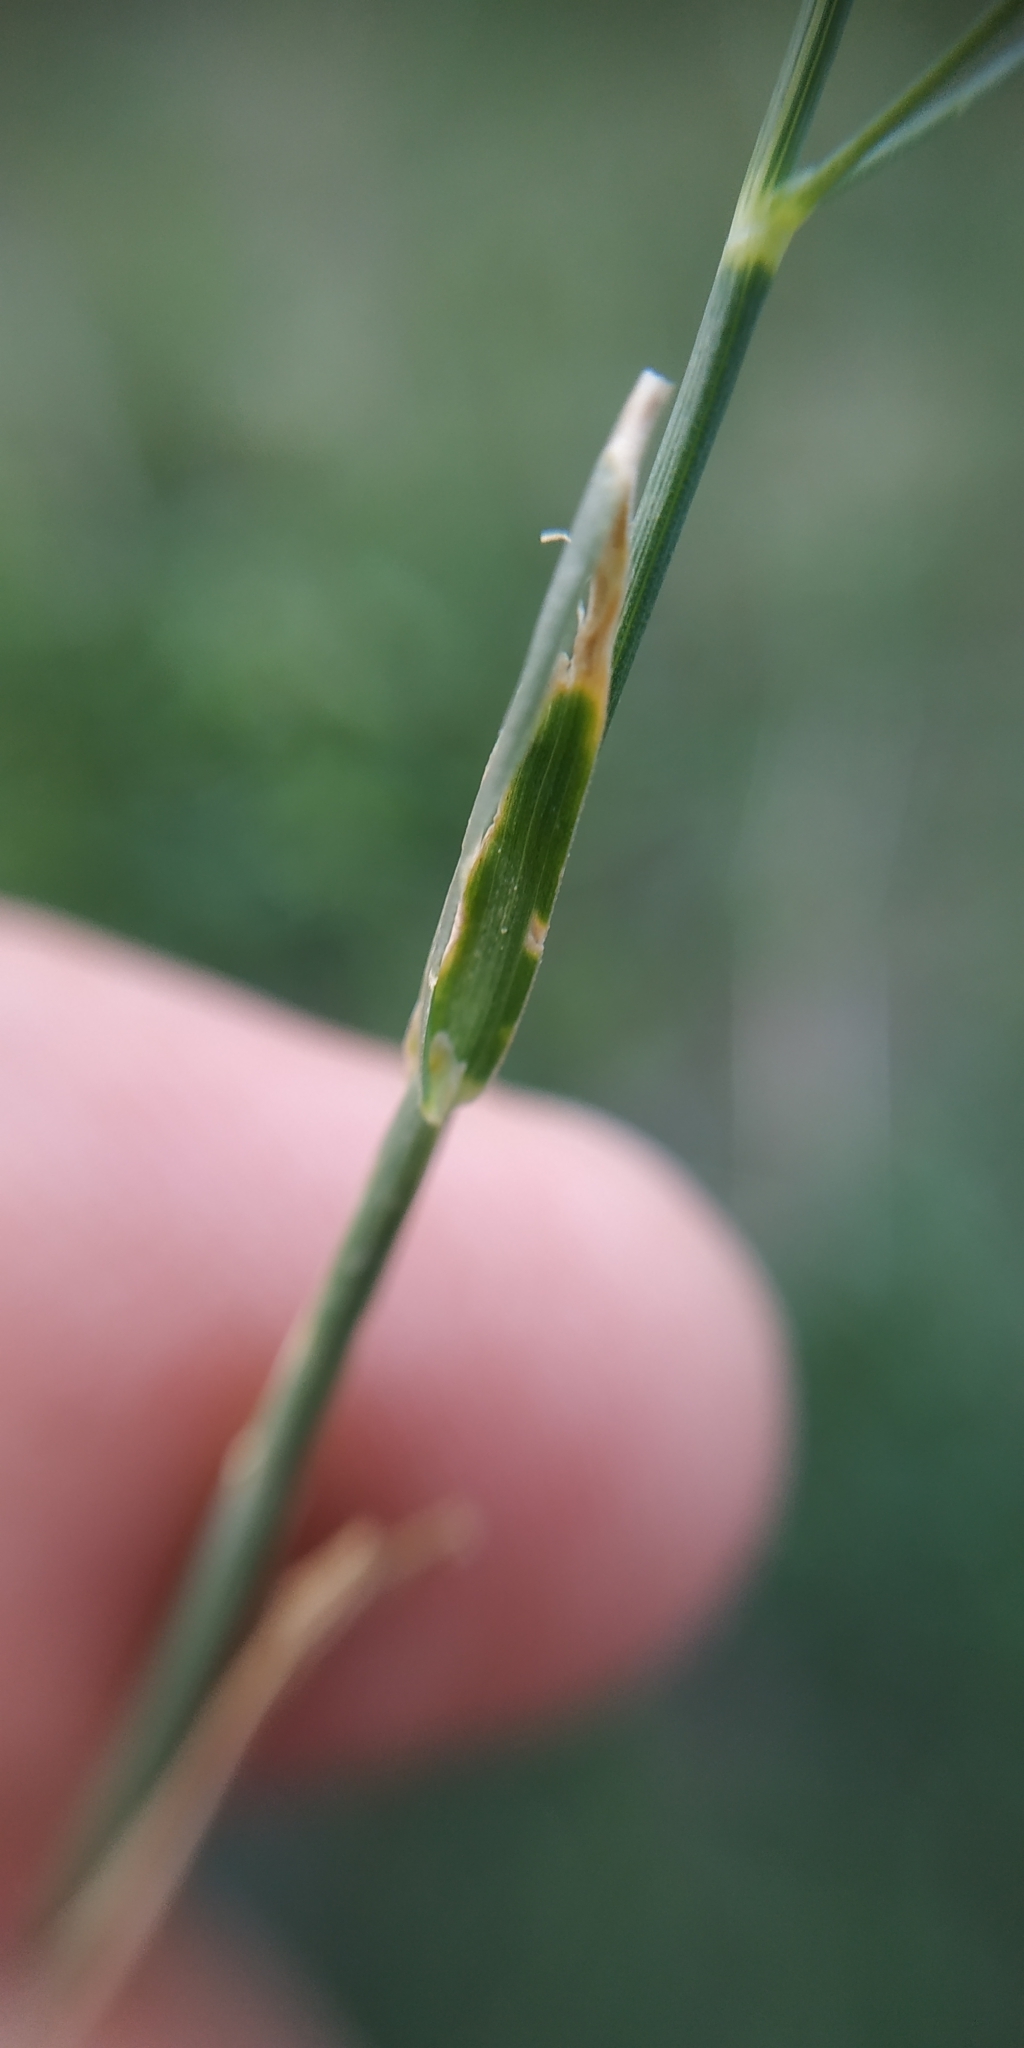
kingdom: Plantae
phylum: Tracheophyta
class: Liliopsida
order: Poales
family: Poaceae
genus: Poa
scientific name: Poa pratensis
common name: Kentucky bluegrass
